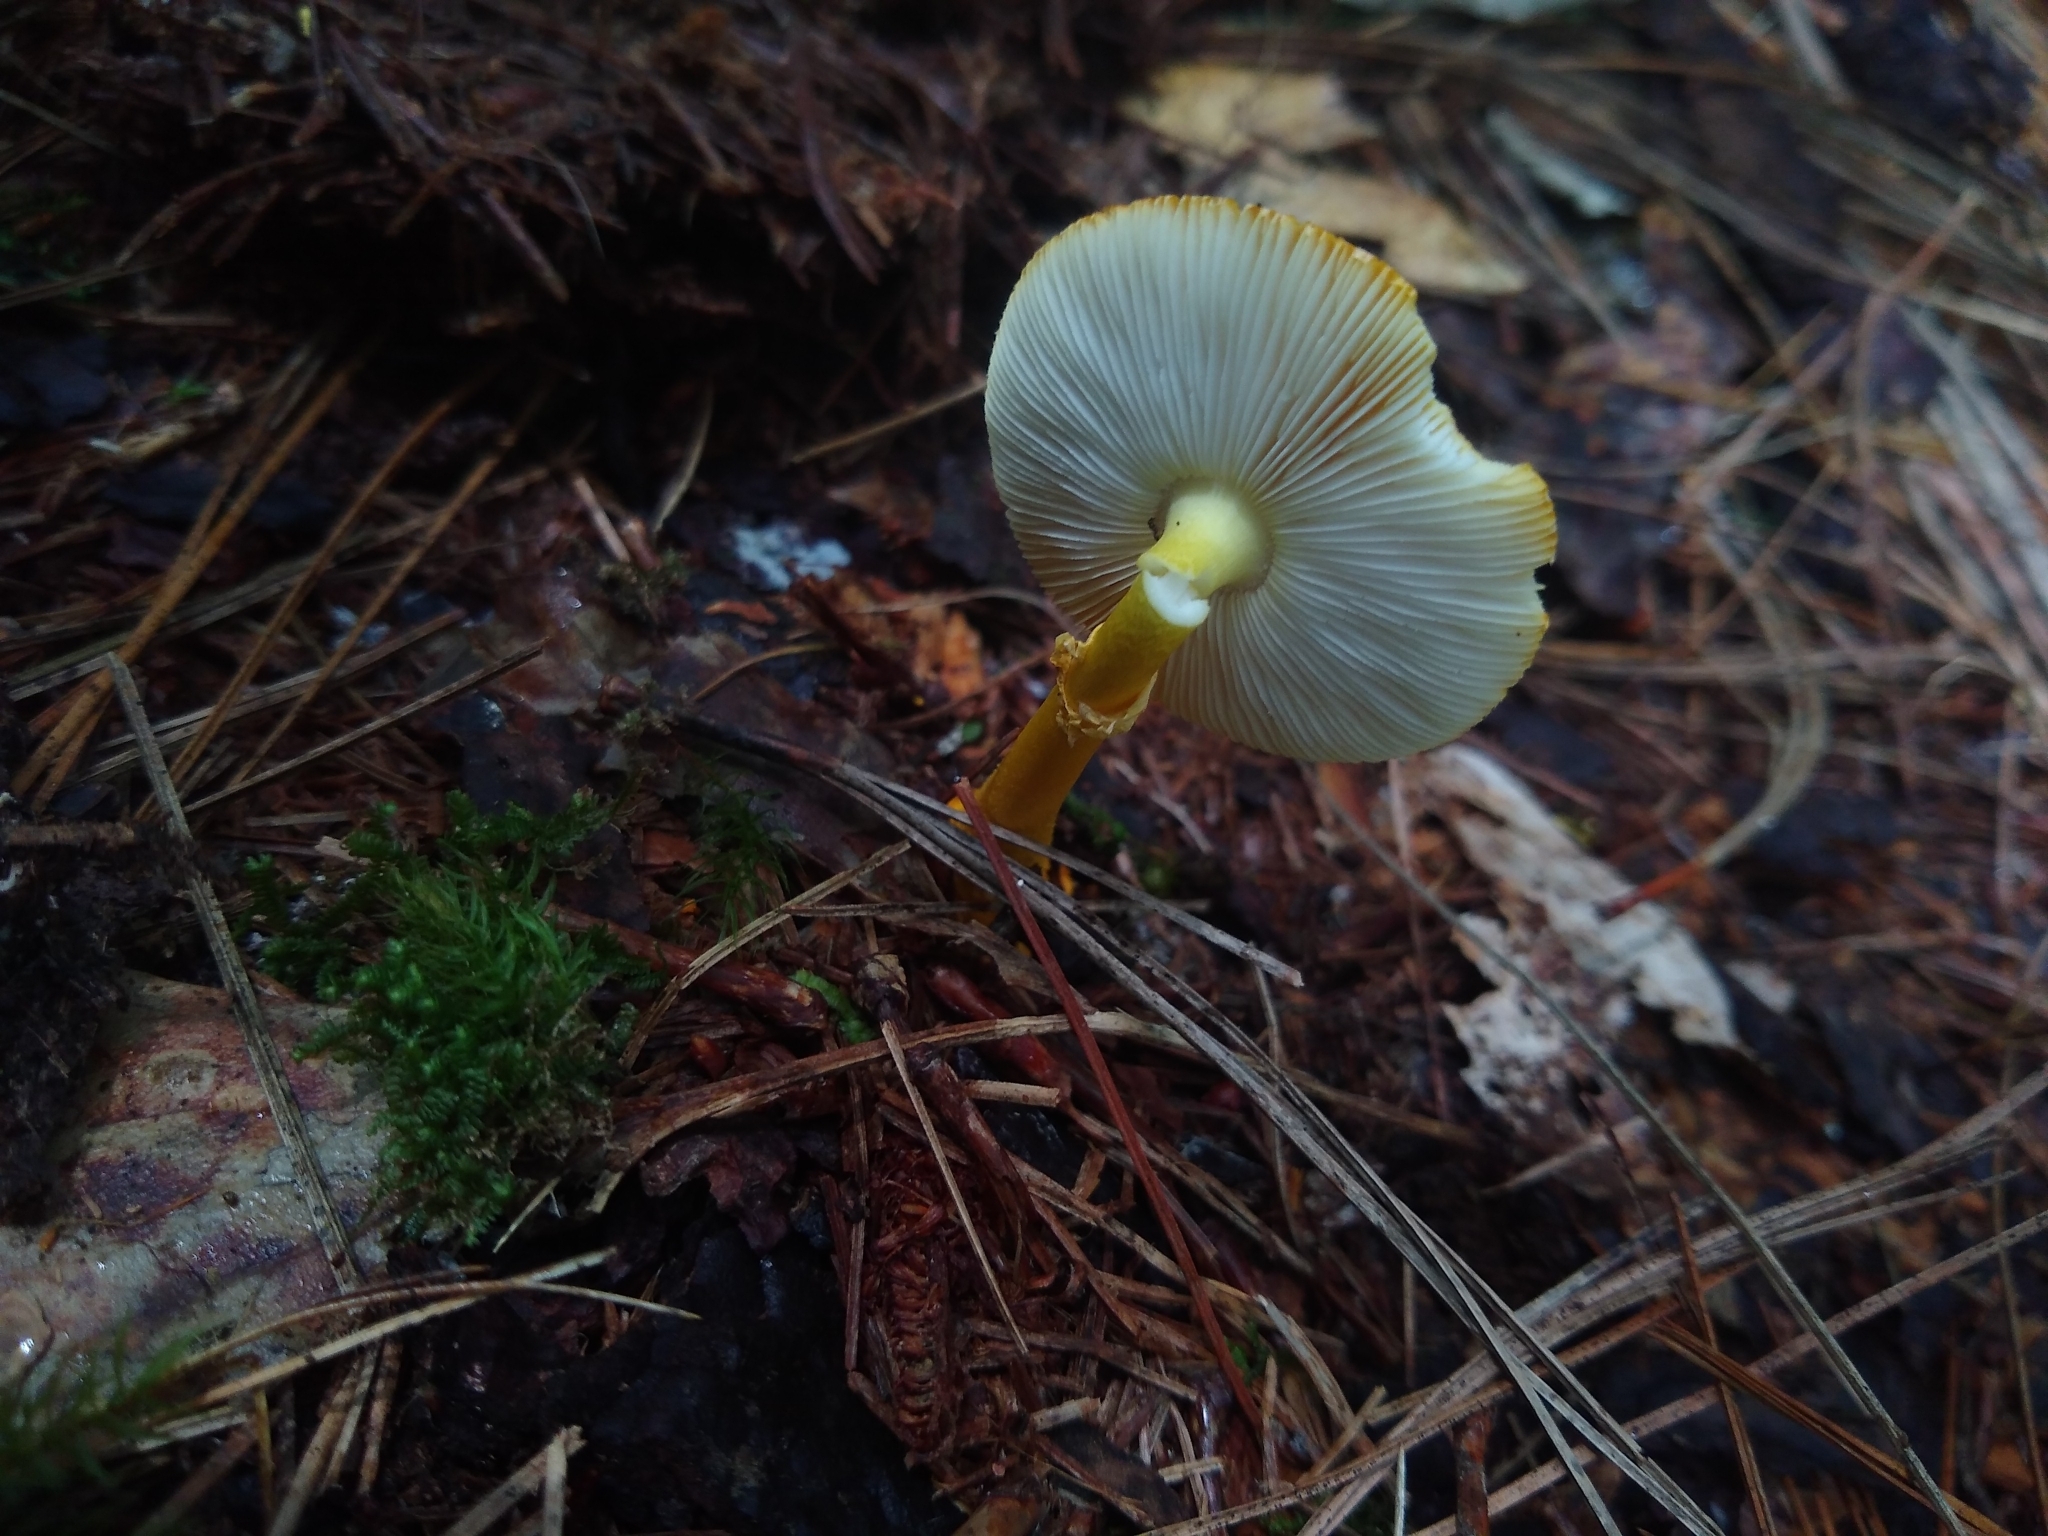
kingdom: Fungi
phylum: Basidiomycota
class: Agaricomycetes
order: Agaricales
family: Amanitaceae
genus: Amanita
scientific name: Amanita flavoconia
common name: Yellow patches
